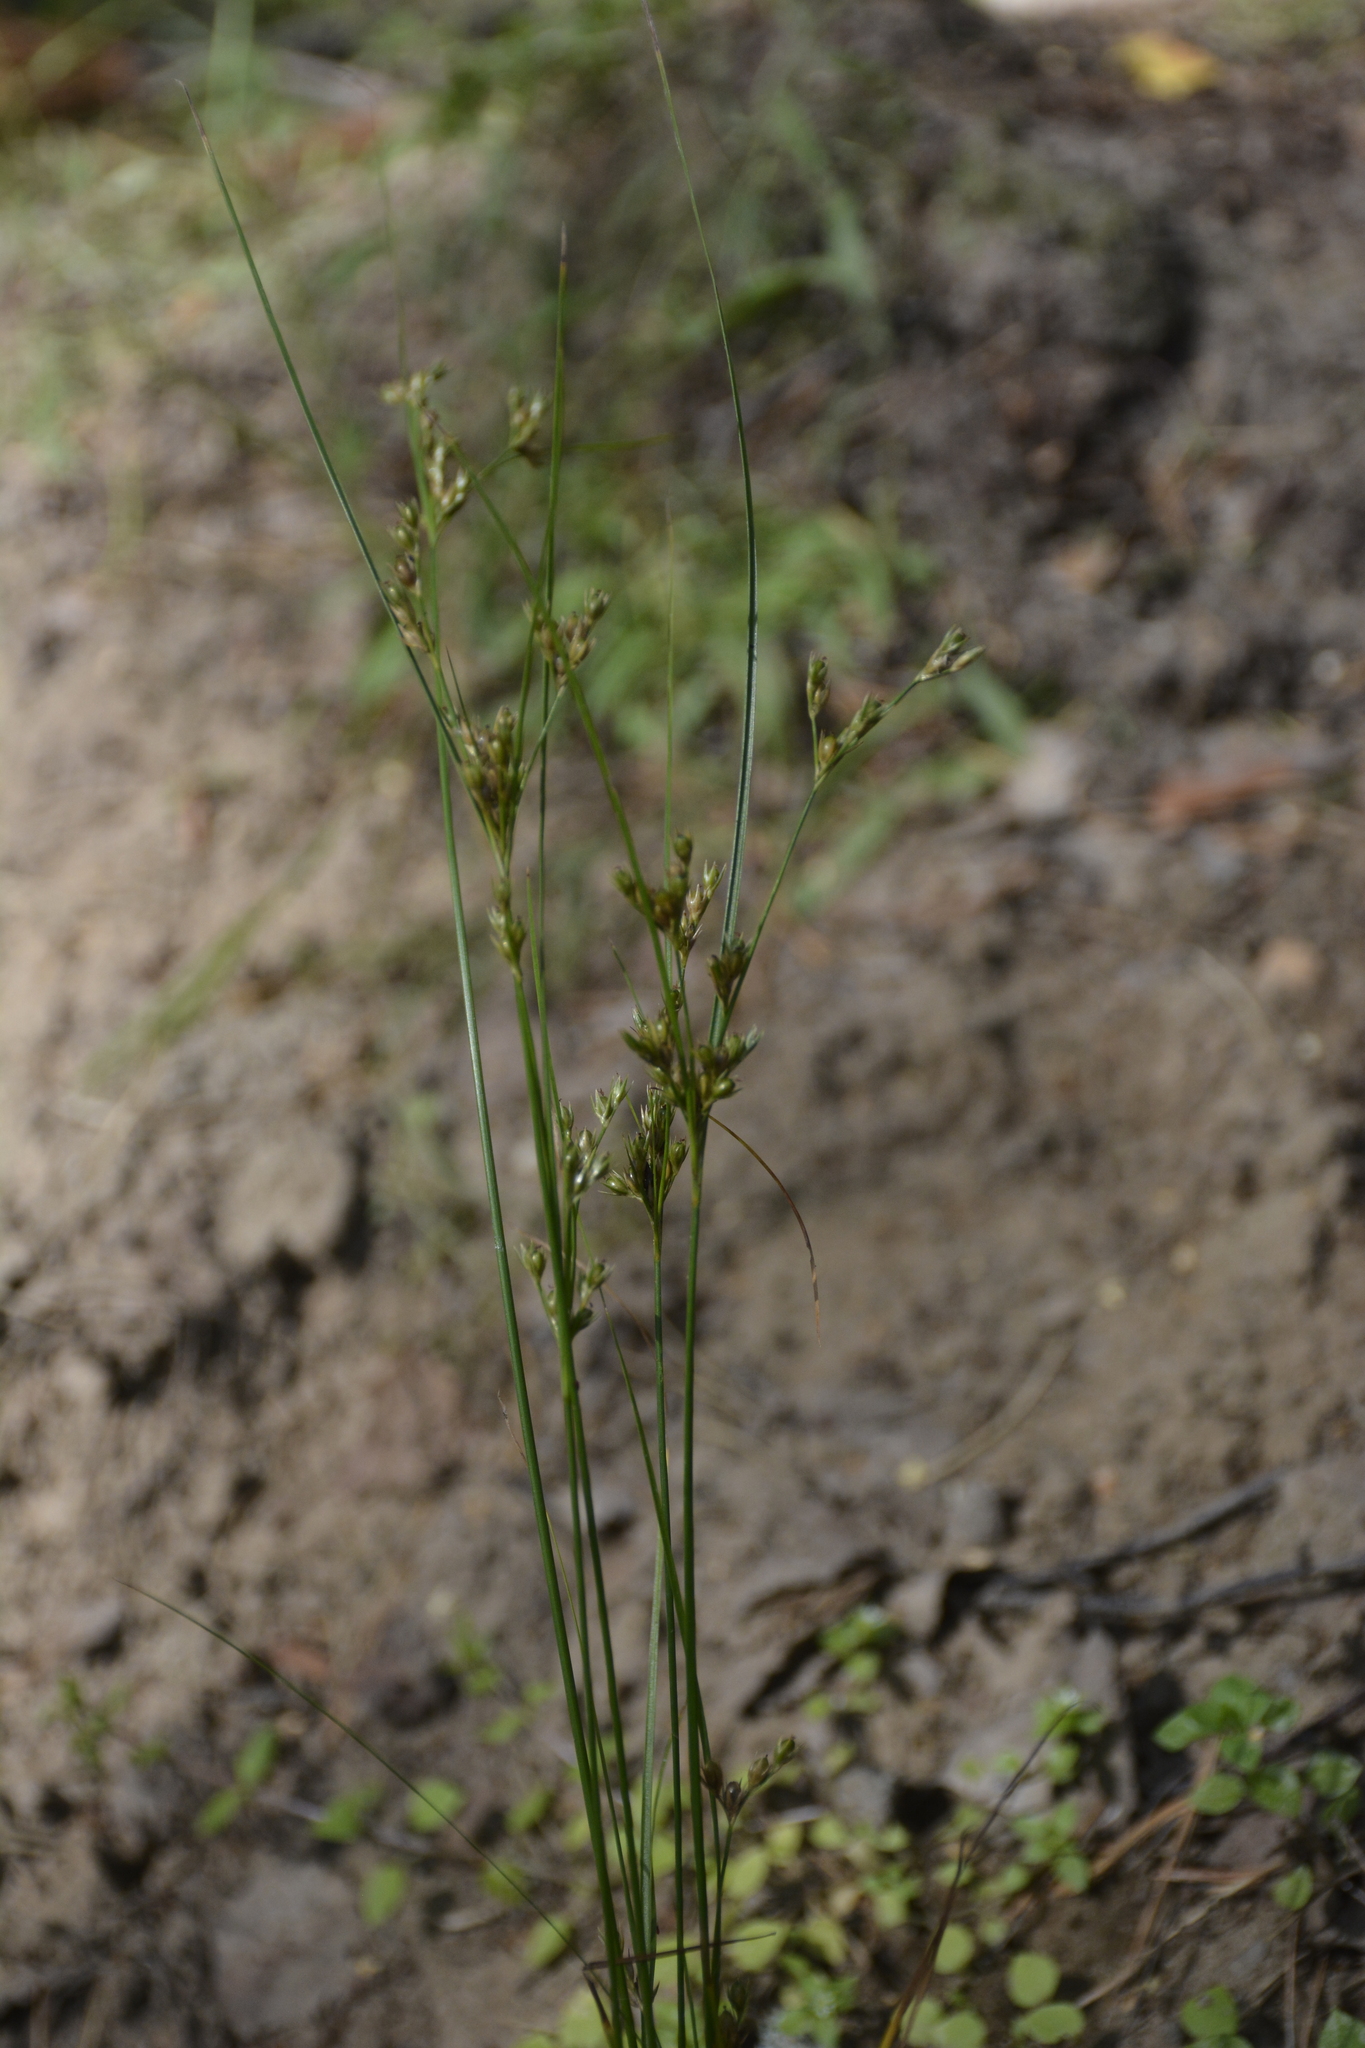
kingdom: Plantae
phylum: Tracheophyta
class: Liliopsida
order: Poales
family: Juncaceae
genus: Juncus
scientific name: Juncus tenuis
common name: Slender rush
